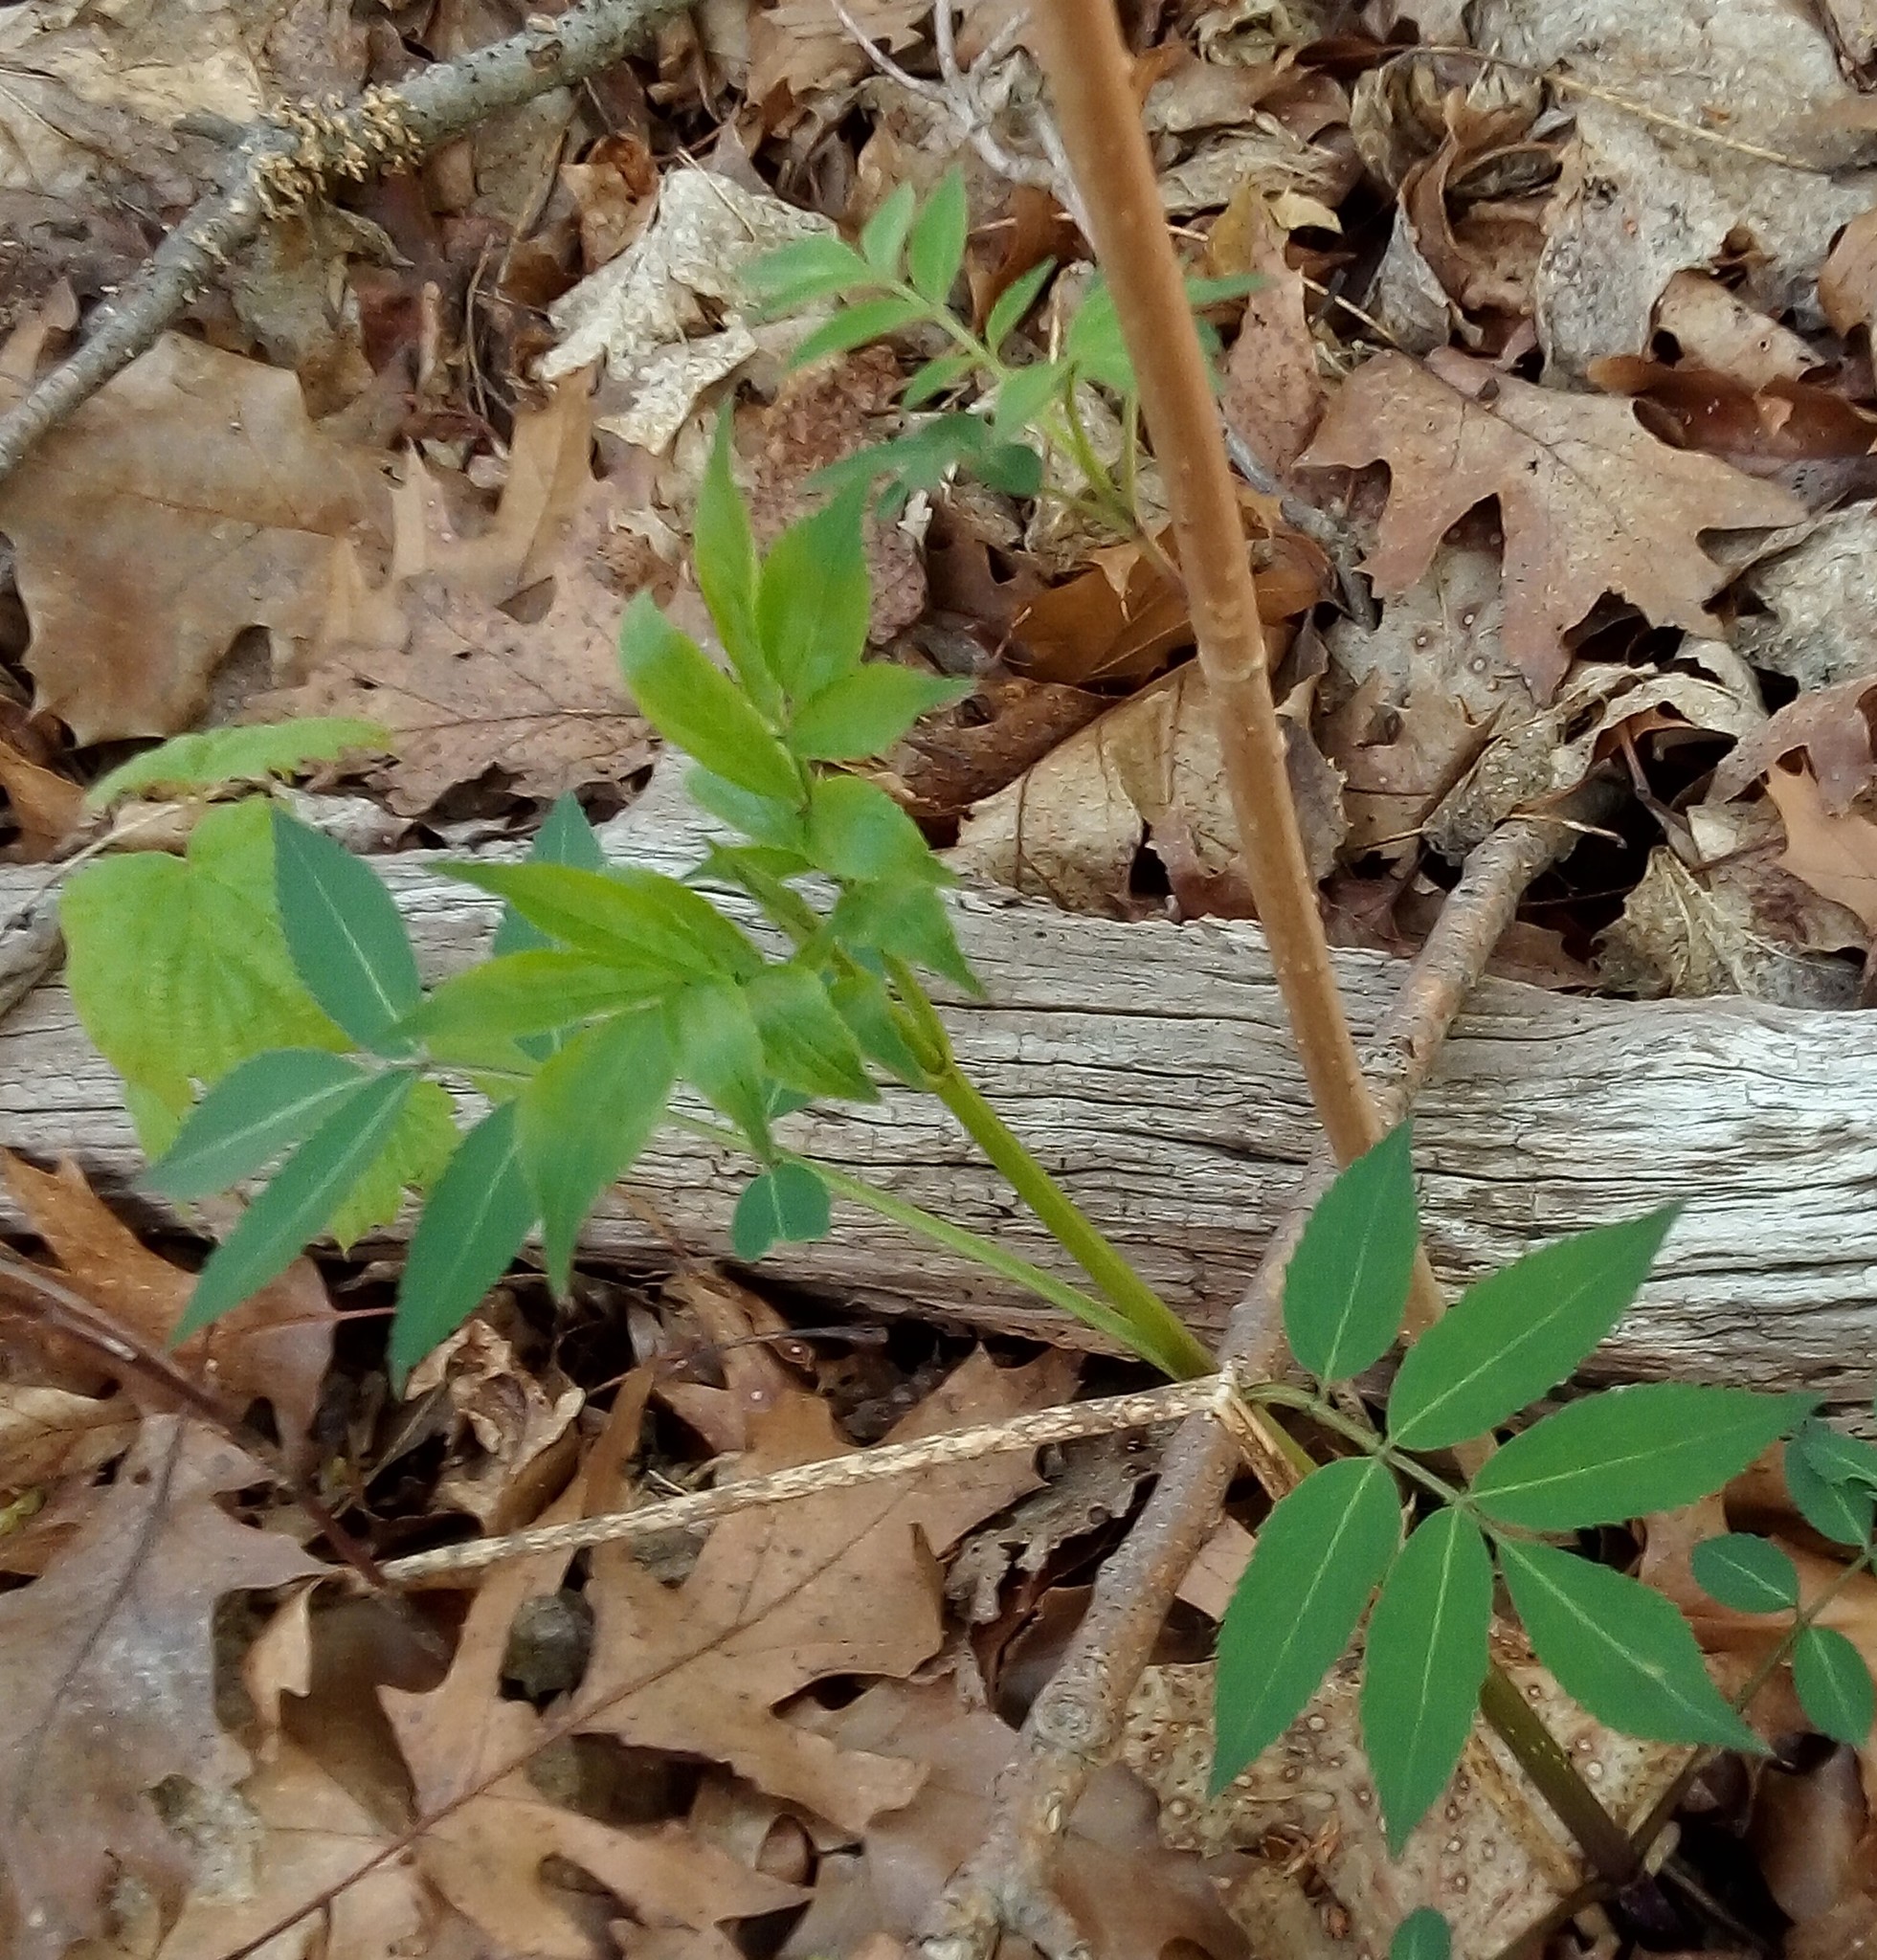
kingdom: Plantae
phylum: Tracheophyta
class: Magnoliopsida
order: Dipsacales
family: Viburnaceae
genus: Sambucus
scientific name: Sambucus canadensis
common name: American elder
